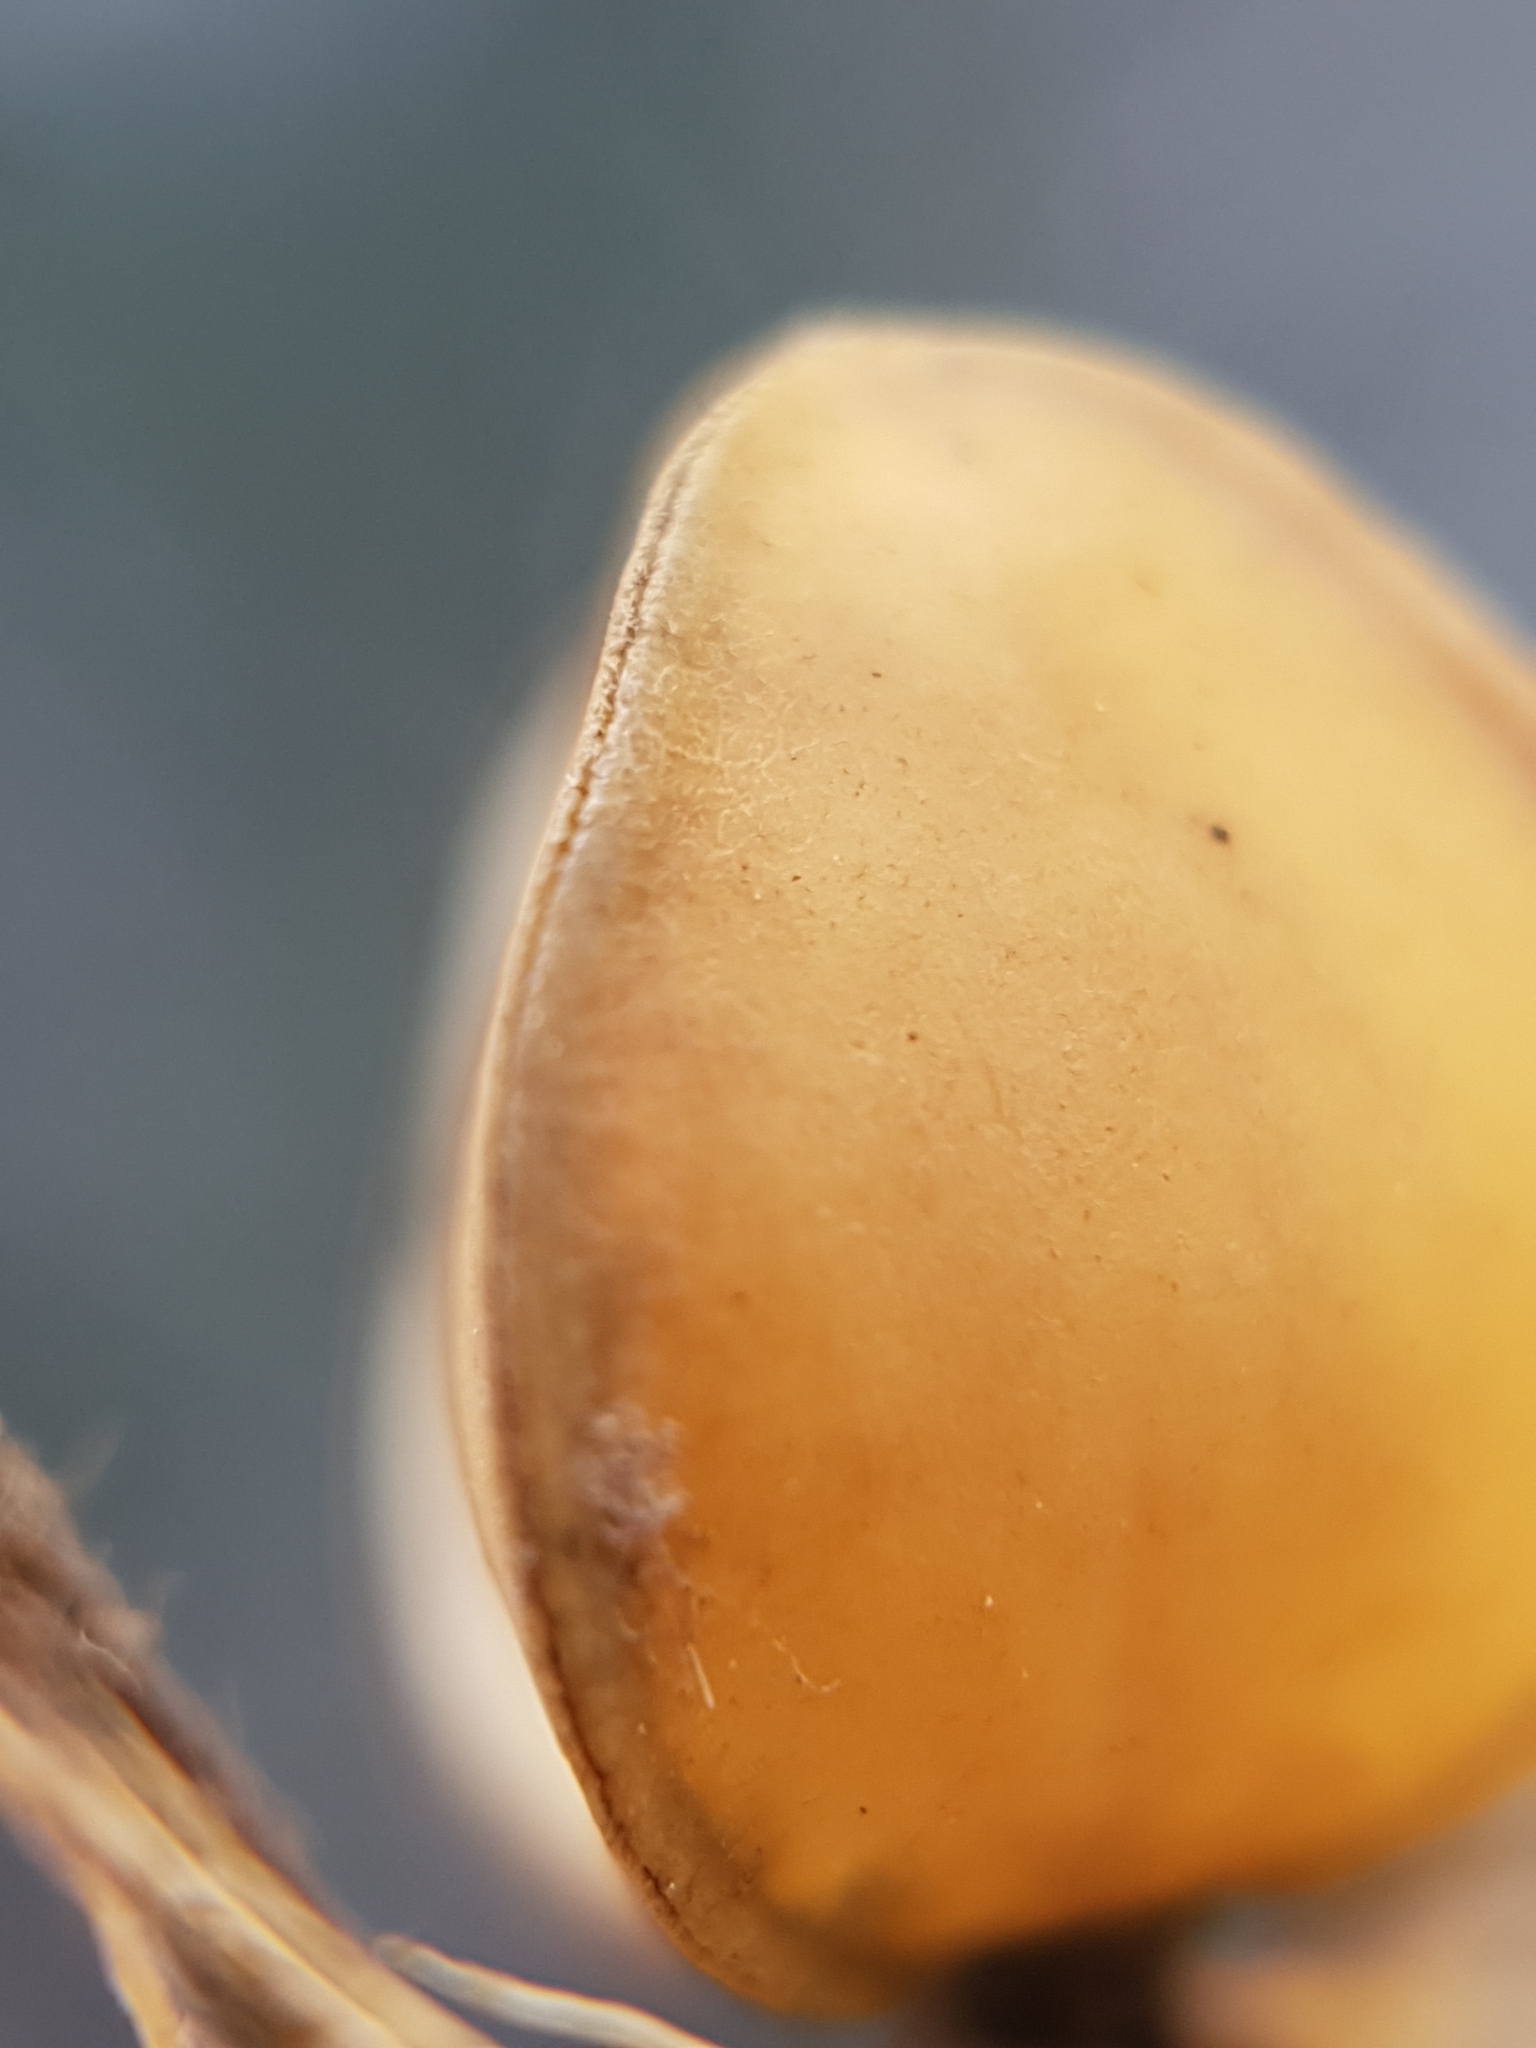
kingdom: Plantae
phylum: Tracheophyta
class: Magnoliopsida
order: Malvales
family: Cistaceae
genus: Helianthemum
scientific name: Helianthemum ledifolium
